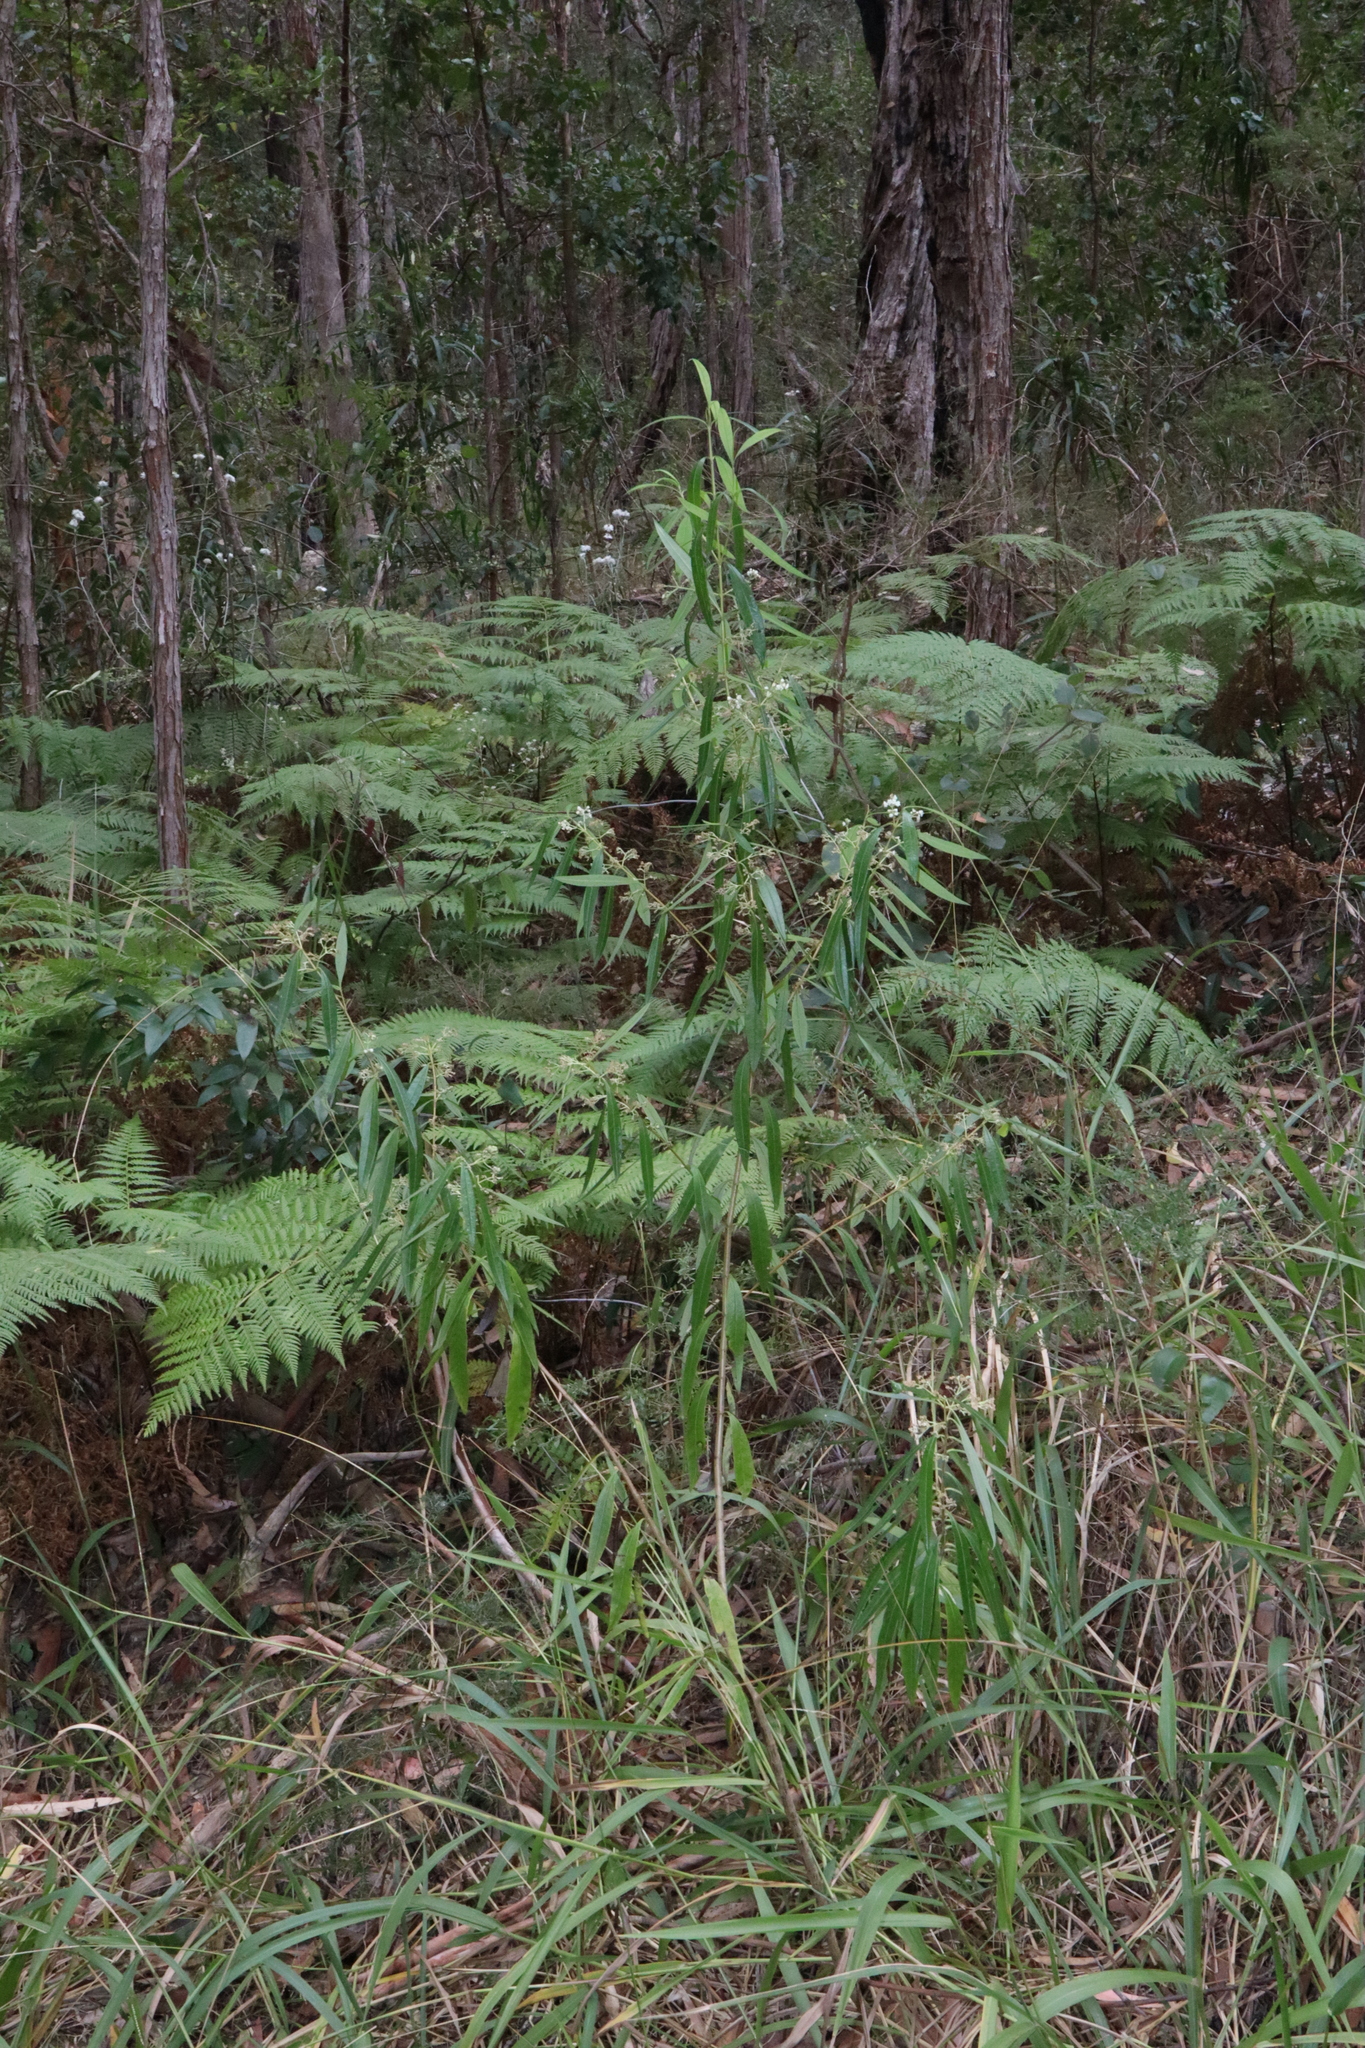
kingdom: Plantae
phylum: Tracheophyta
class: Magnoliopsida
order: Ericales
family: Ericaceae
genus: Leucopogon
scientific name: Leucopogon lanceolatus
